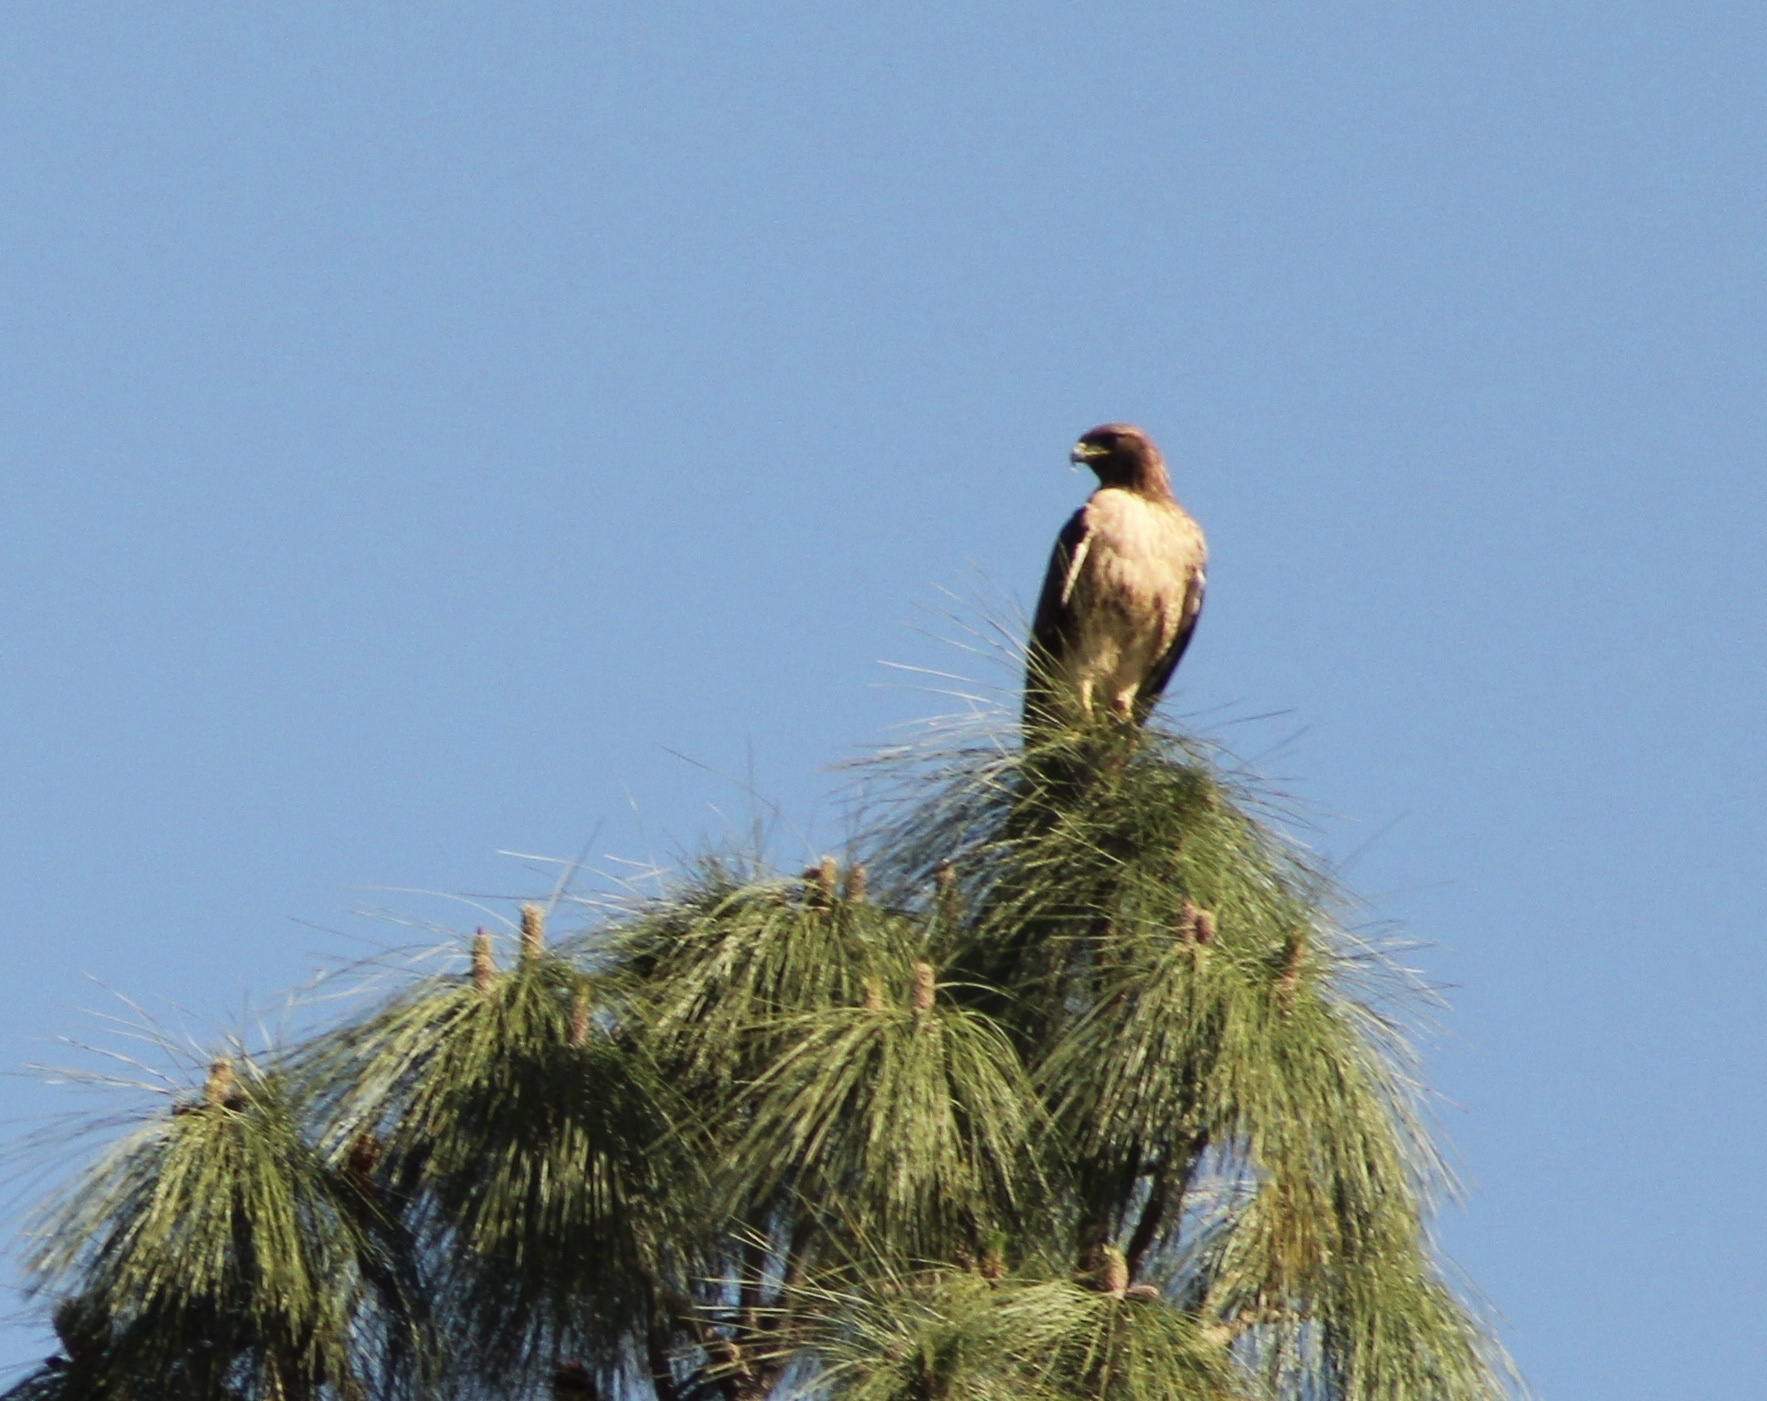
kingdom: Animalia
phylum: Chordata
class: Aves
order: Accipitriformes
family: Accipitridae
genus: Buteo
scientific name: Buteo jamaicensis
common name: Red-tailed hawk
